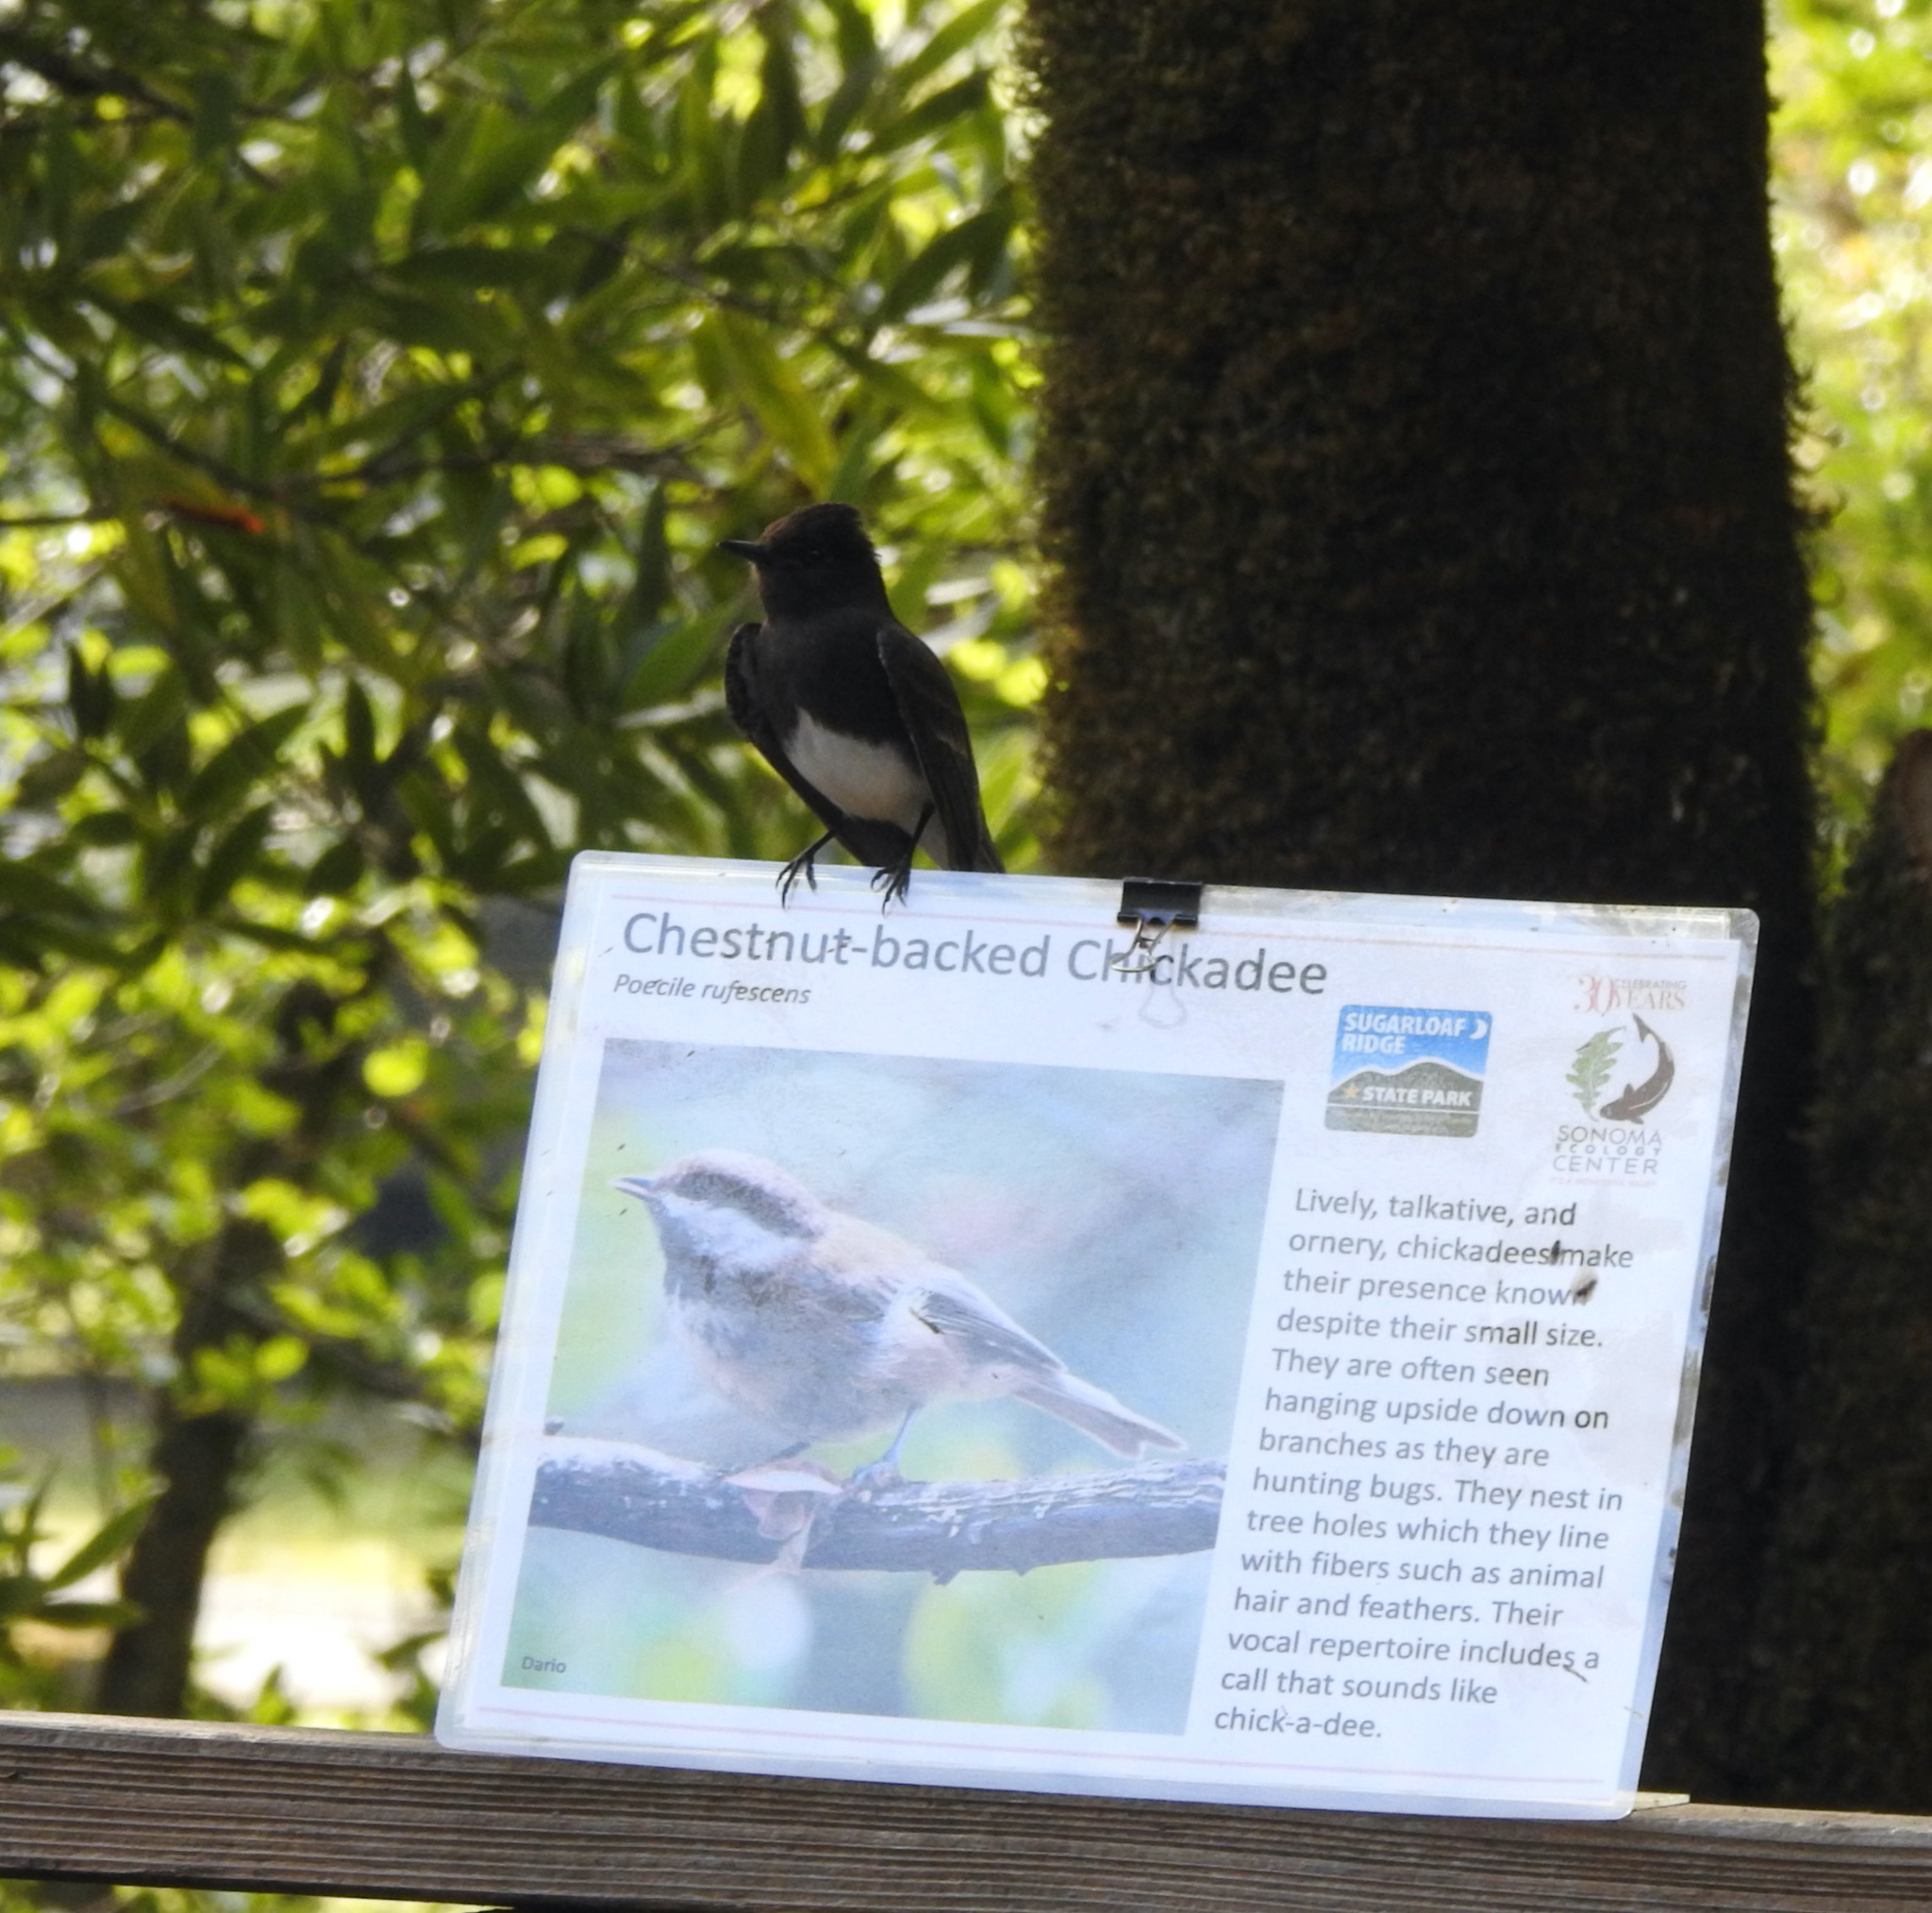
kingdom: Animalia
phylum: Chordata
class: Aves
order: Passeriformes
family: Tyrannidae
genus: Sayornis
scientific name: Sayornis nigricans
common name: Black phoebe
